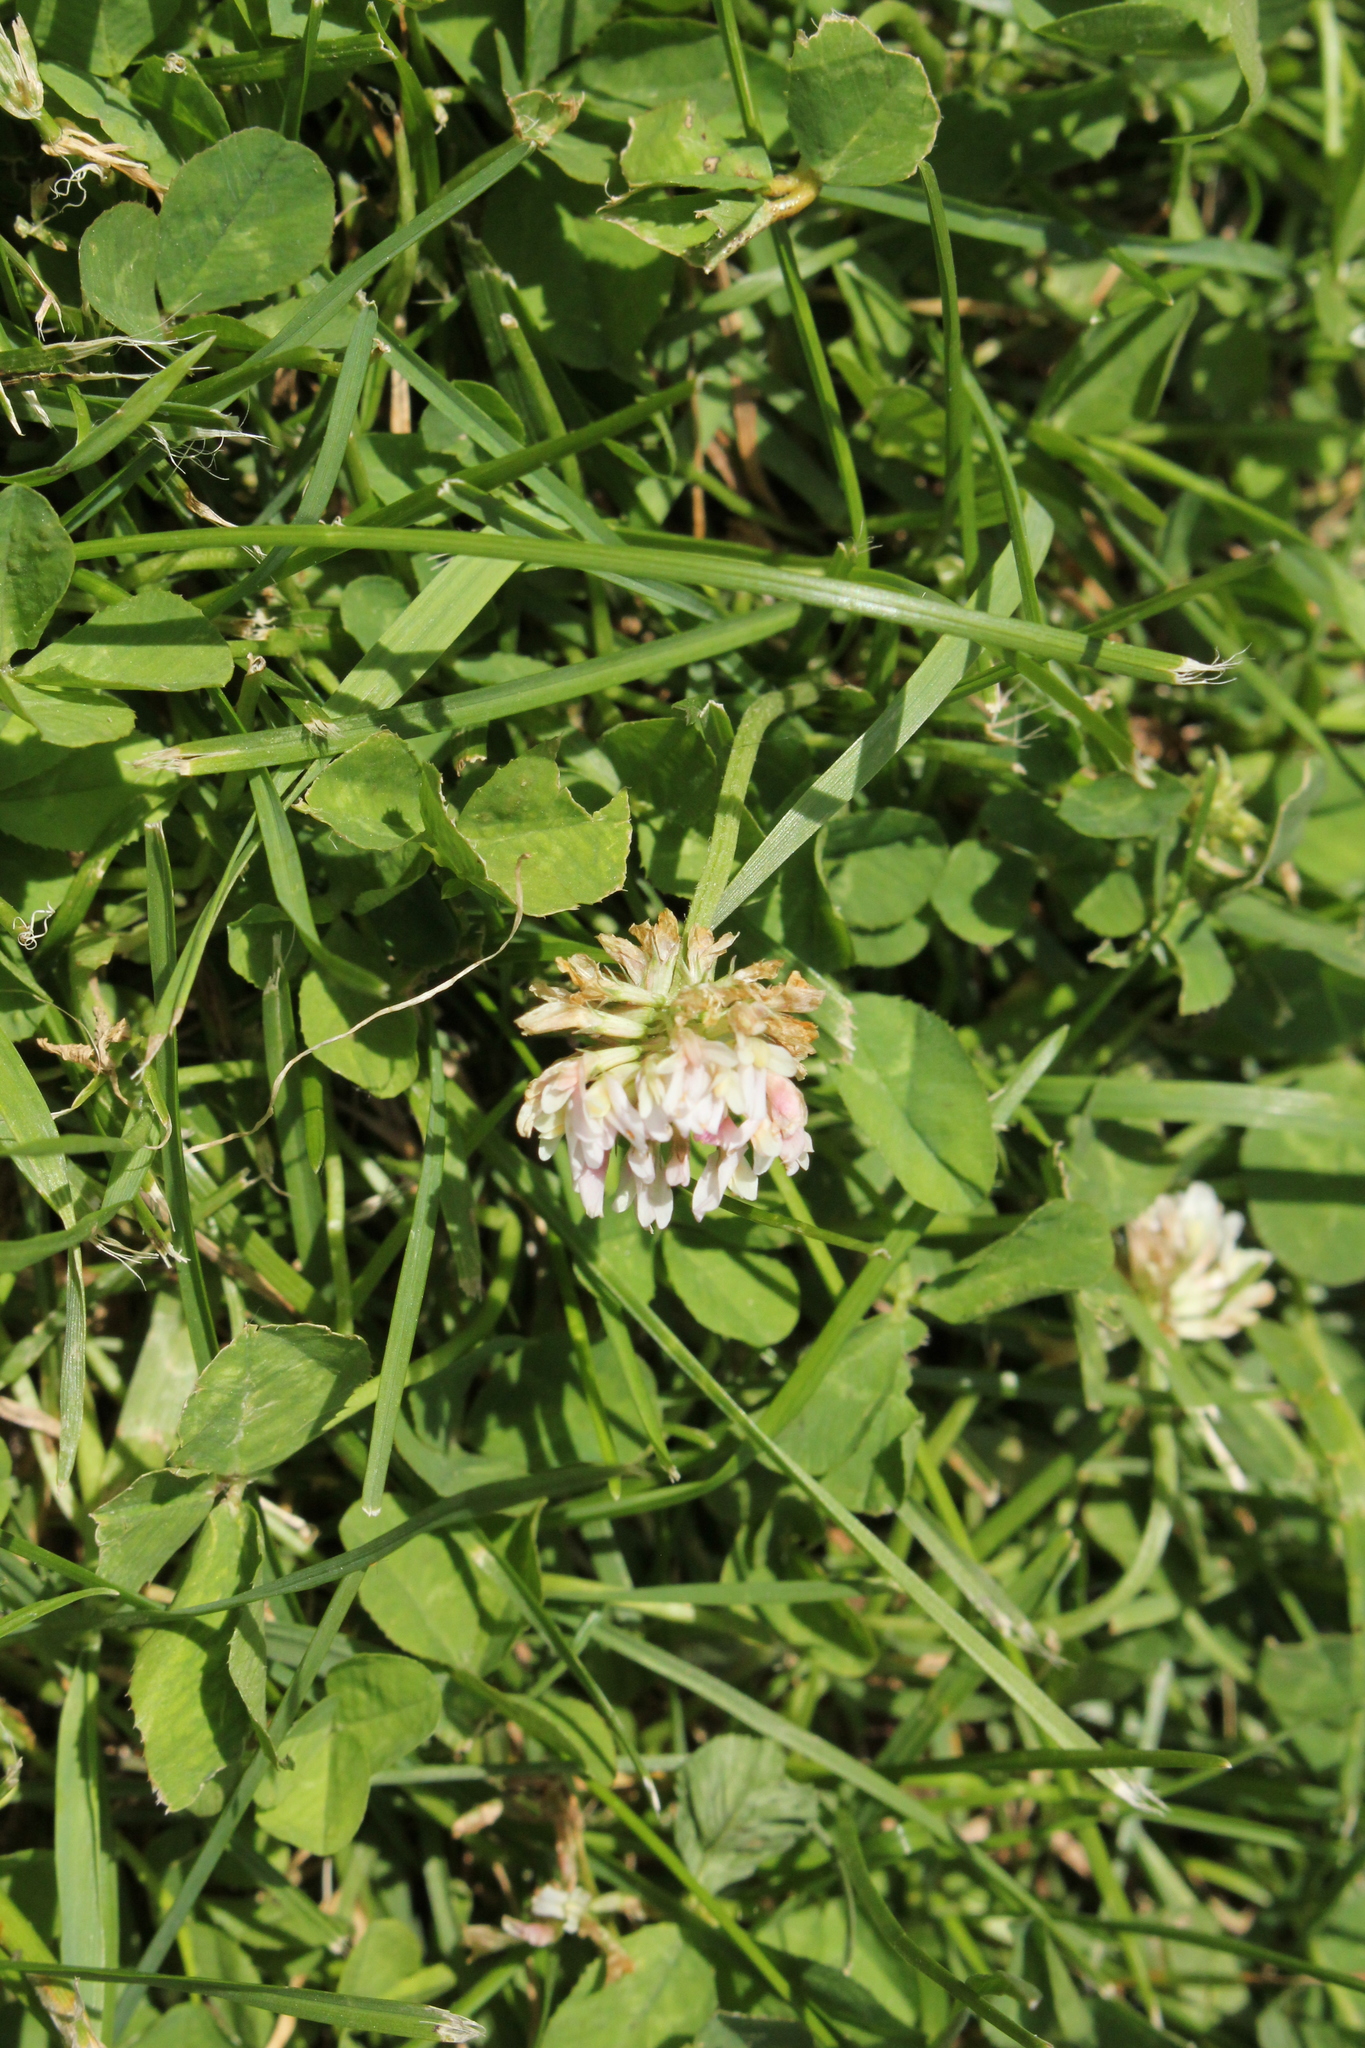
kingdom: Plantae
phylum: Tracheophyta
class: Magnoliopsida
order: Fabales
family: Fabaceae
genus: Trifolium
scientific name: Trifolium repens
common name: White clover
